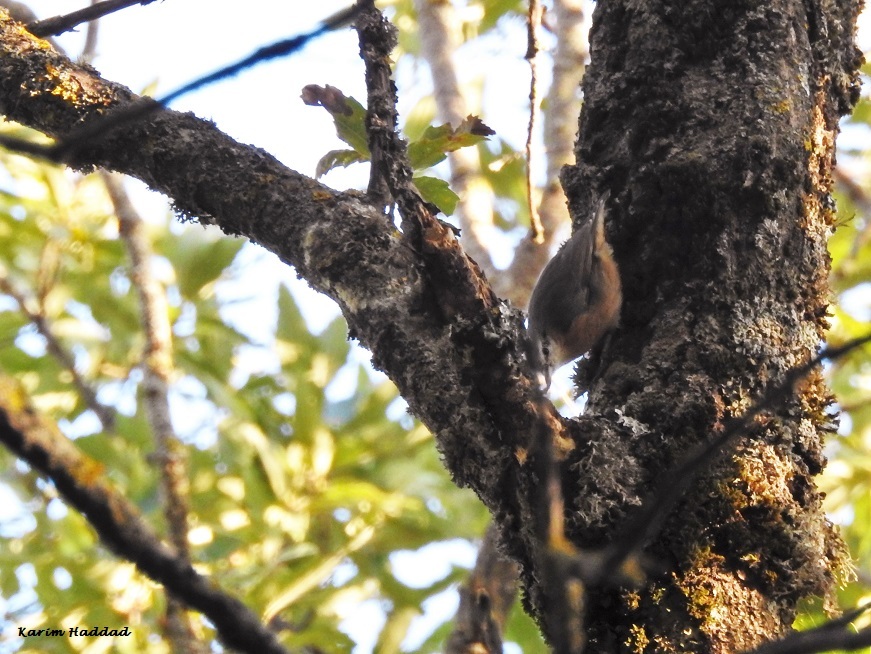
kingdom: Animalia
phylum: Chordata
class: Aves
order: Passeriformes
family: Sittidae
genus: Sitta
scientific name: Sitta ledanti
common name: Algerian nuthatch
